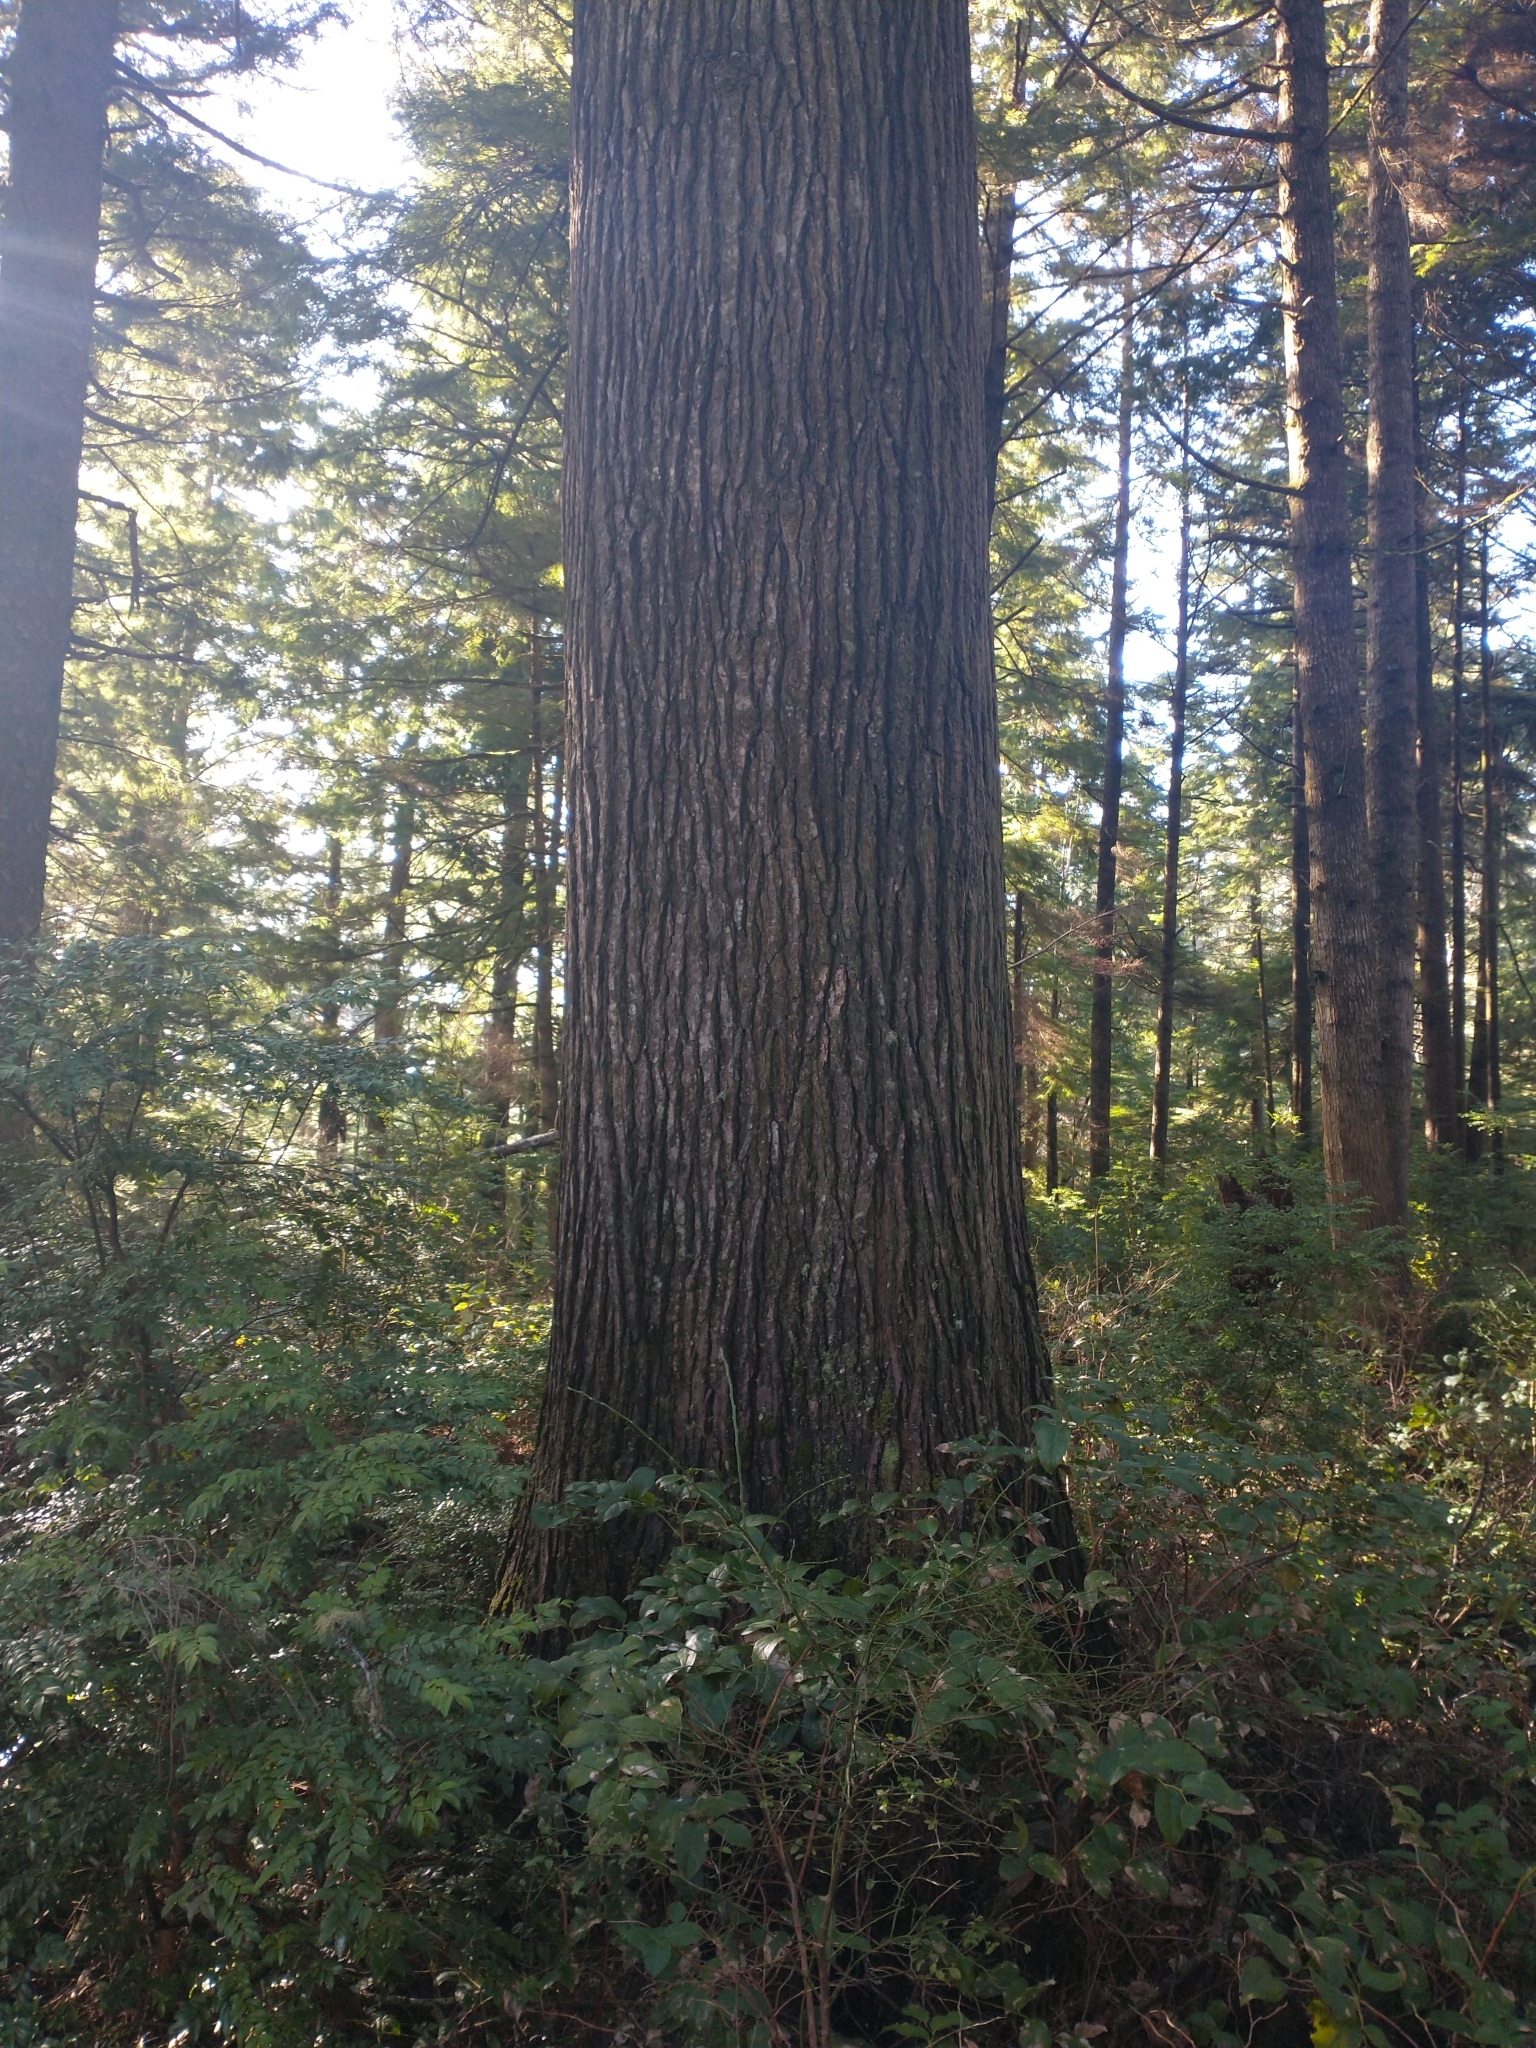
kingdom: Plantae
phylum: Tracheophyta
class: Pinopsida
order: Pinales
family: Pinaceae
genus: Tsuga
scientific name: Tsuga heterophylla
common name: Western hemlock
